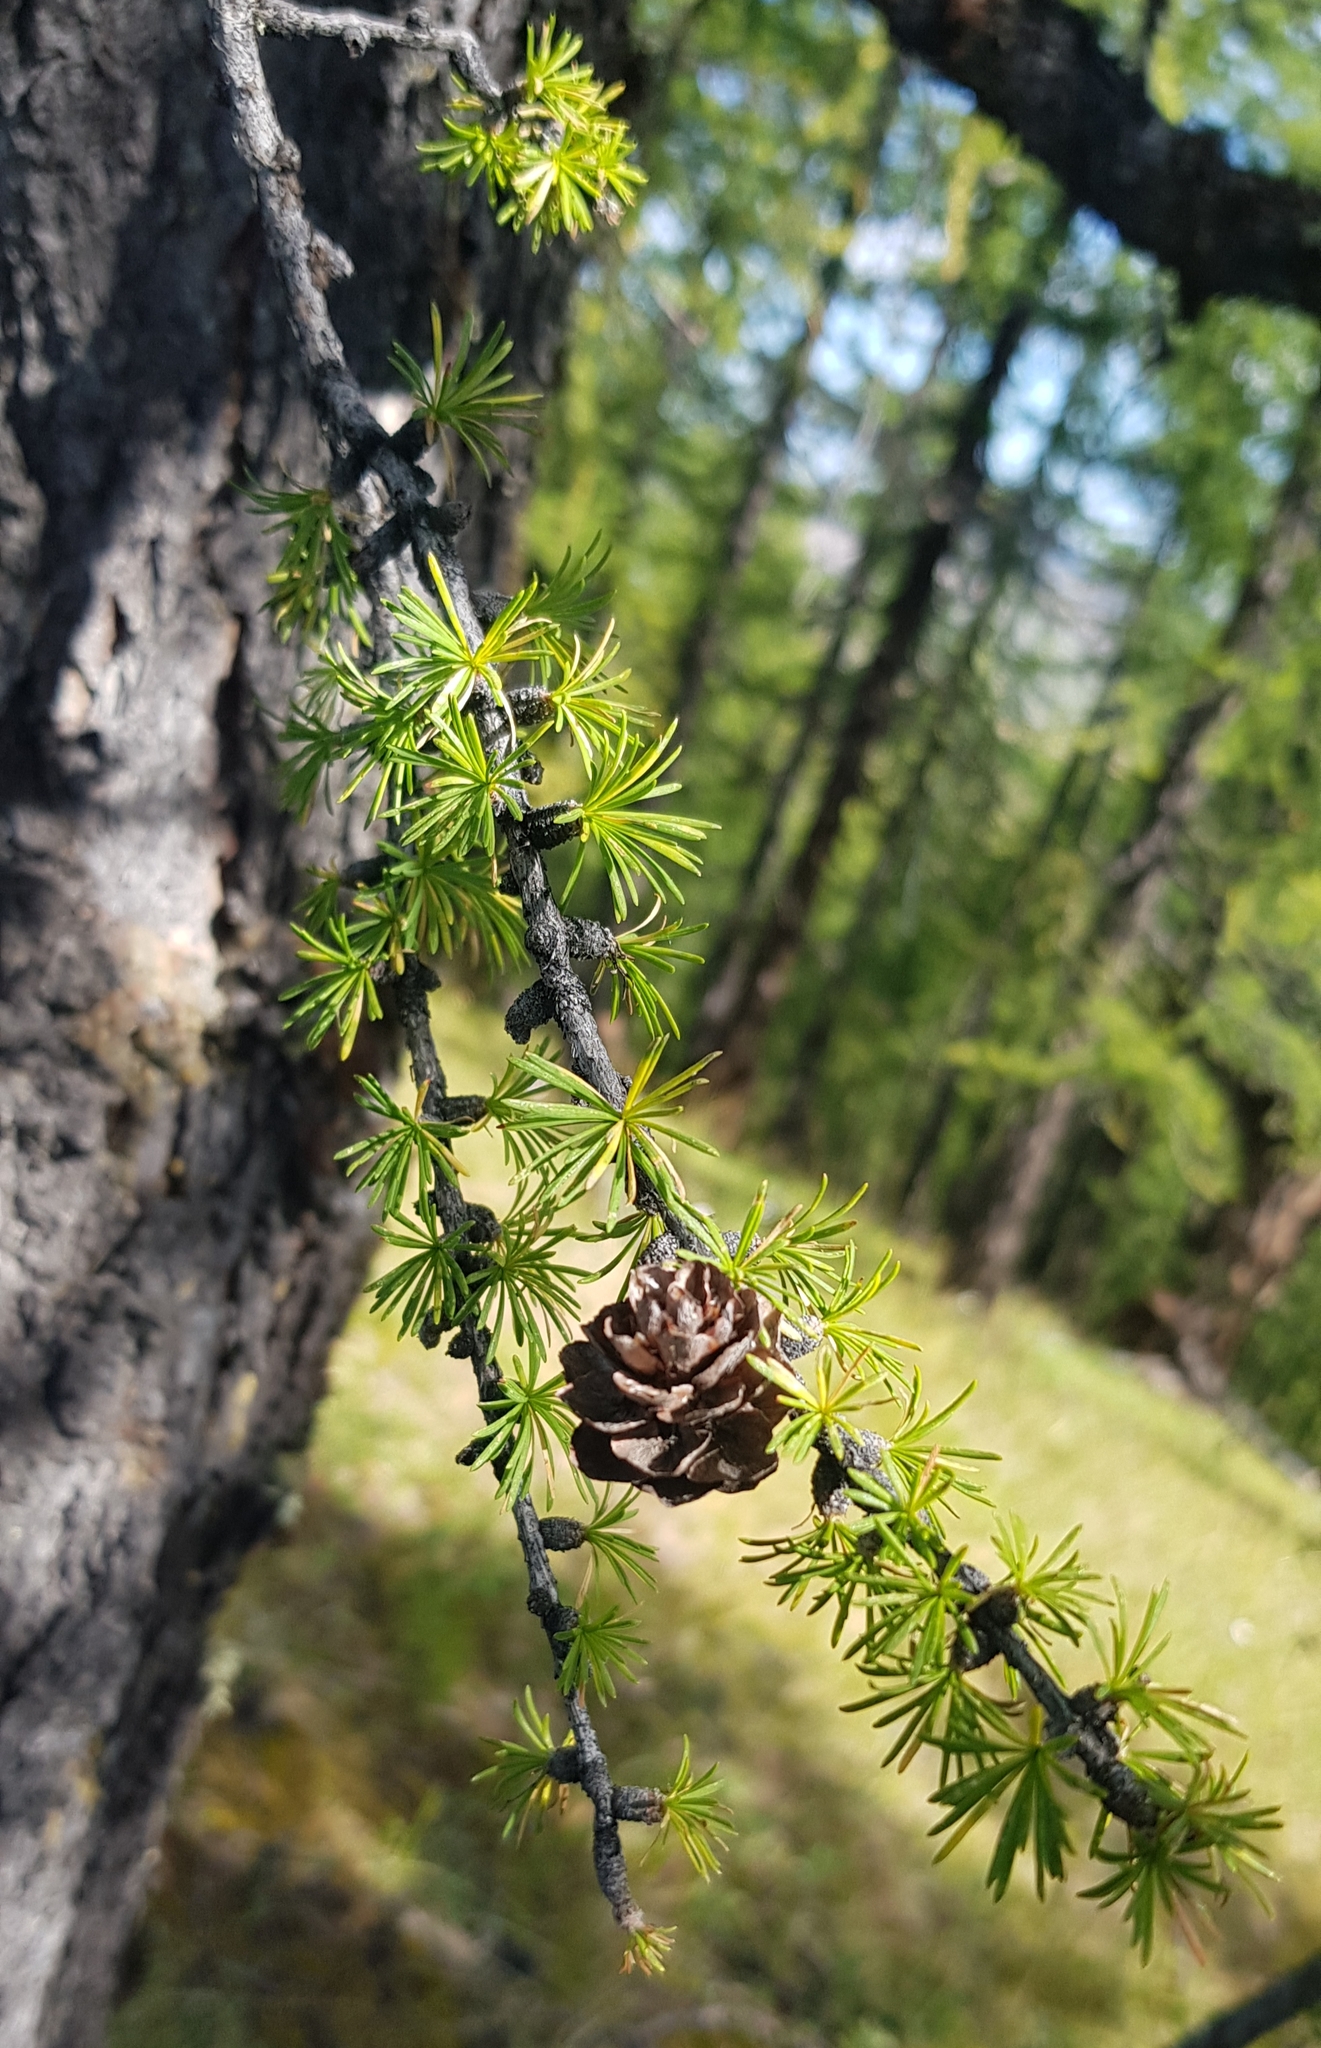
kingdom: Plantae
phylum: Tracheophyta
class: Pinopsida
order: Pinales
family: Pinaceae
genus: Larix
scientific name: Larix sibirica
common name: Siberian larch
